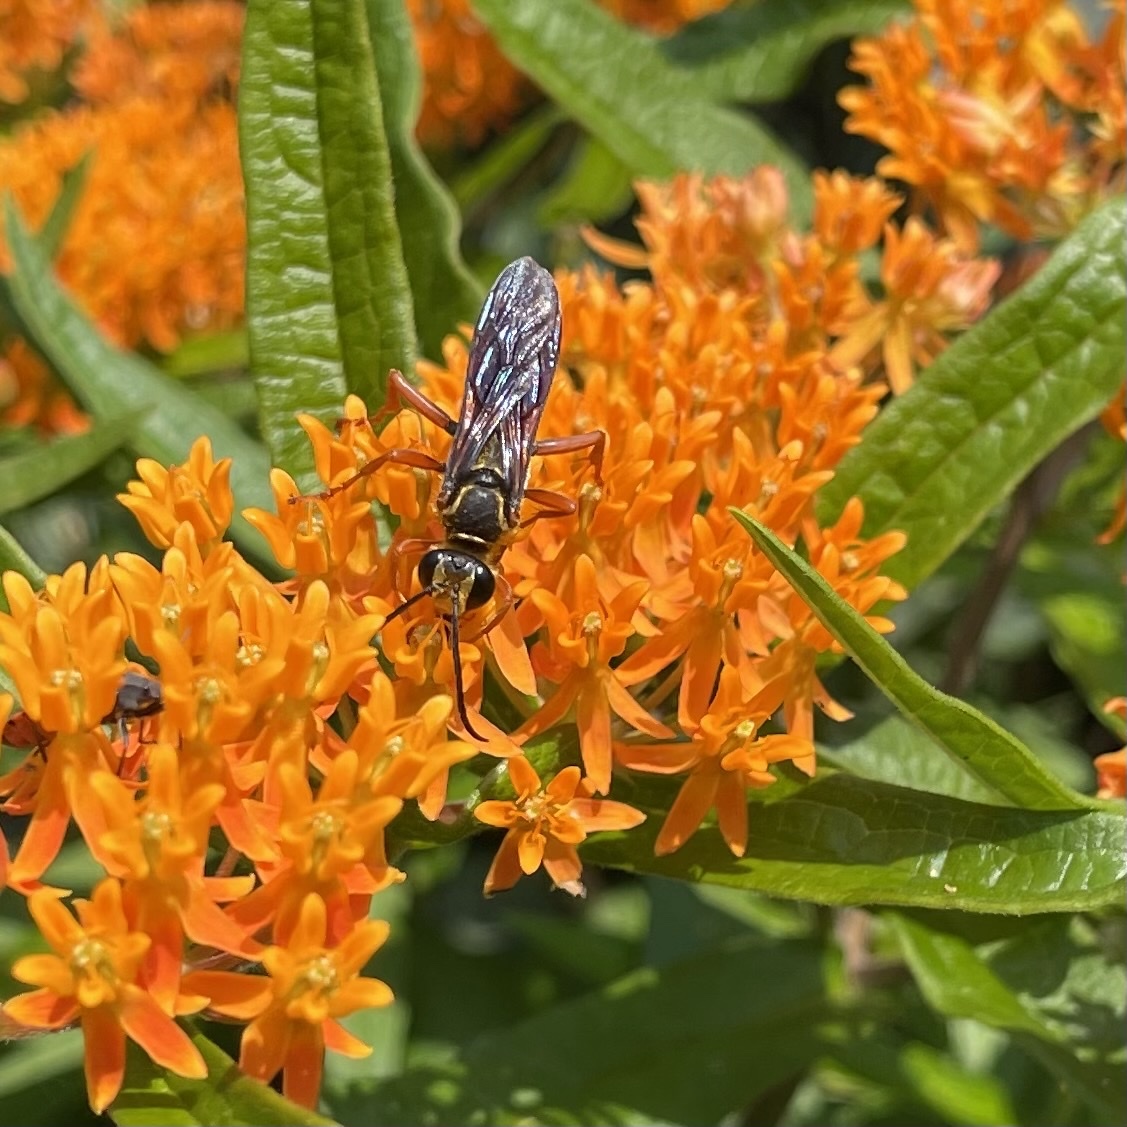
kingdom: Animalia
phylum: Arthropoda
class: Insecta
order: Hymenoptera
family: Sphecidae
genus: Sphex
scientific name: Sphex ichneumoneus
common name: Great golden digger wasp
